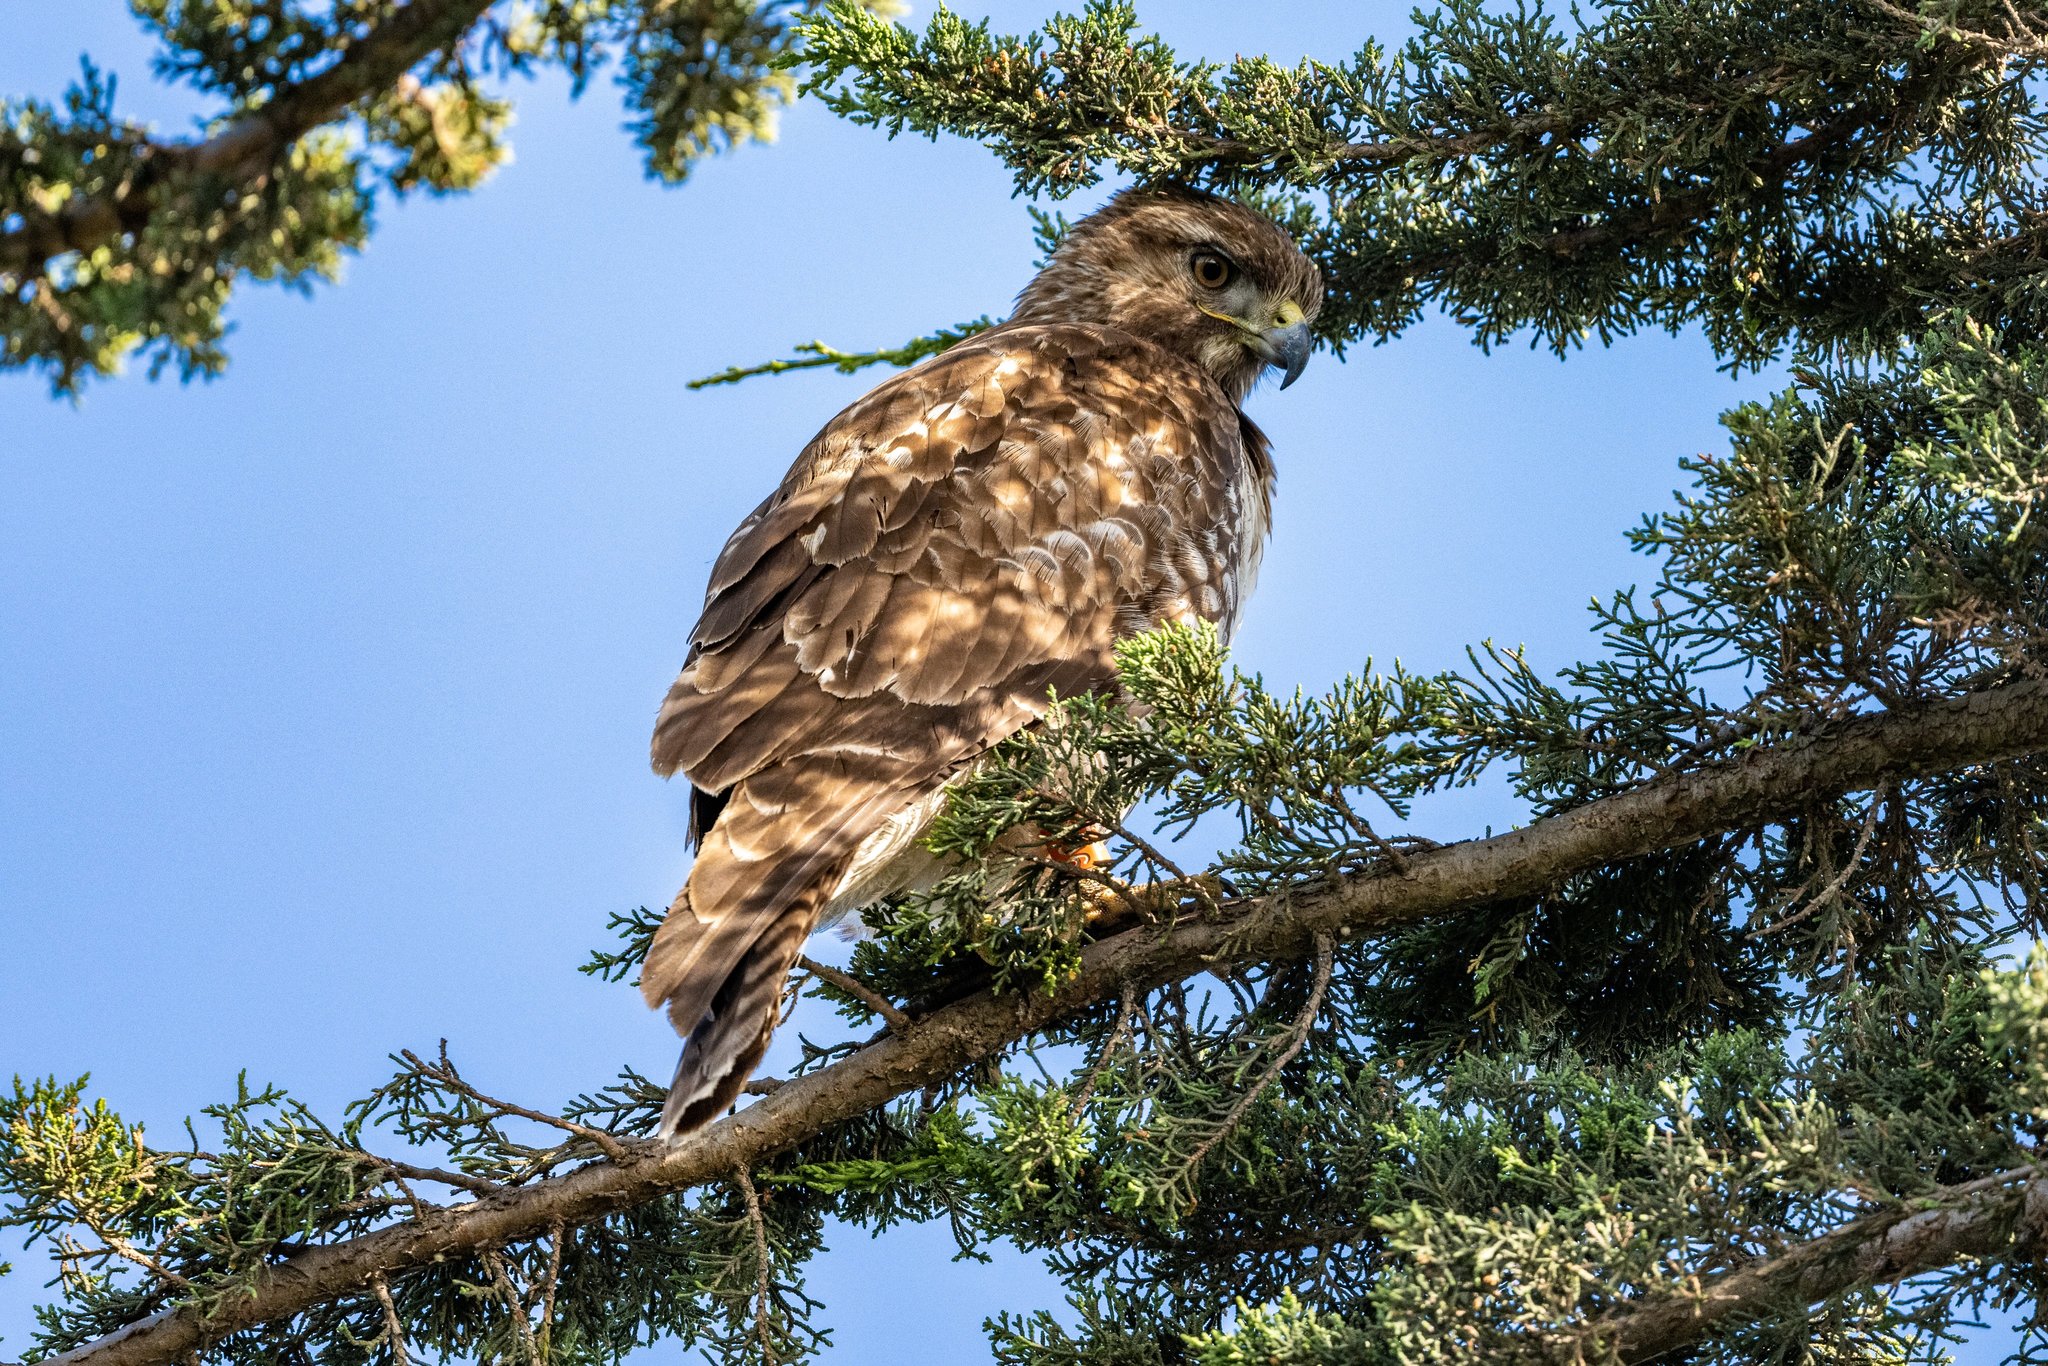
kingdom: Animalia
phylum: Chordata
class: Aves
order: Accipitriformes
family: Accipitridae
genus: Buteo
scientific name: Buteo jamaicensis
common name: Red-tailed hawk
